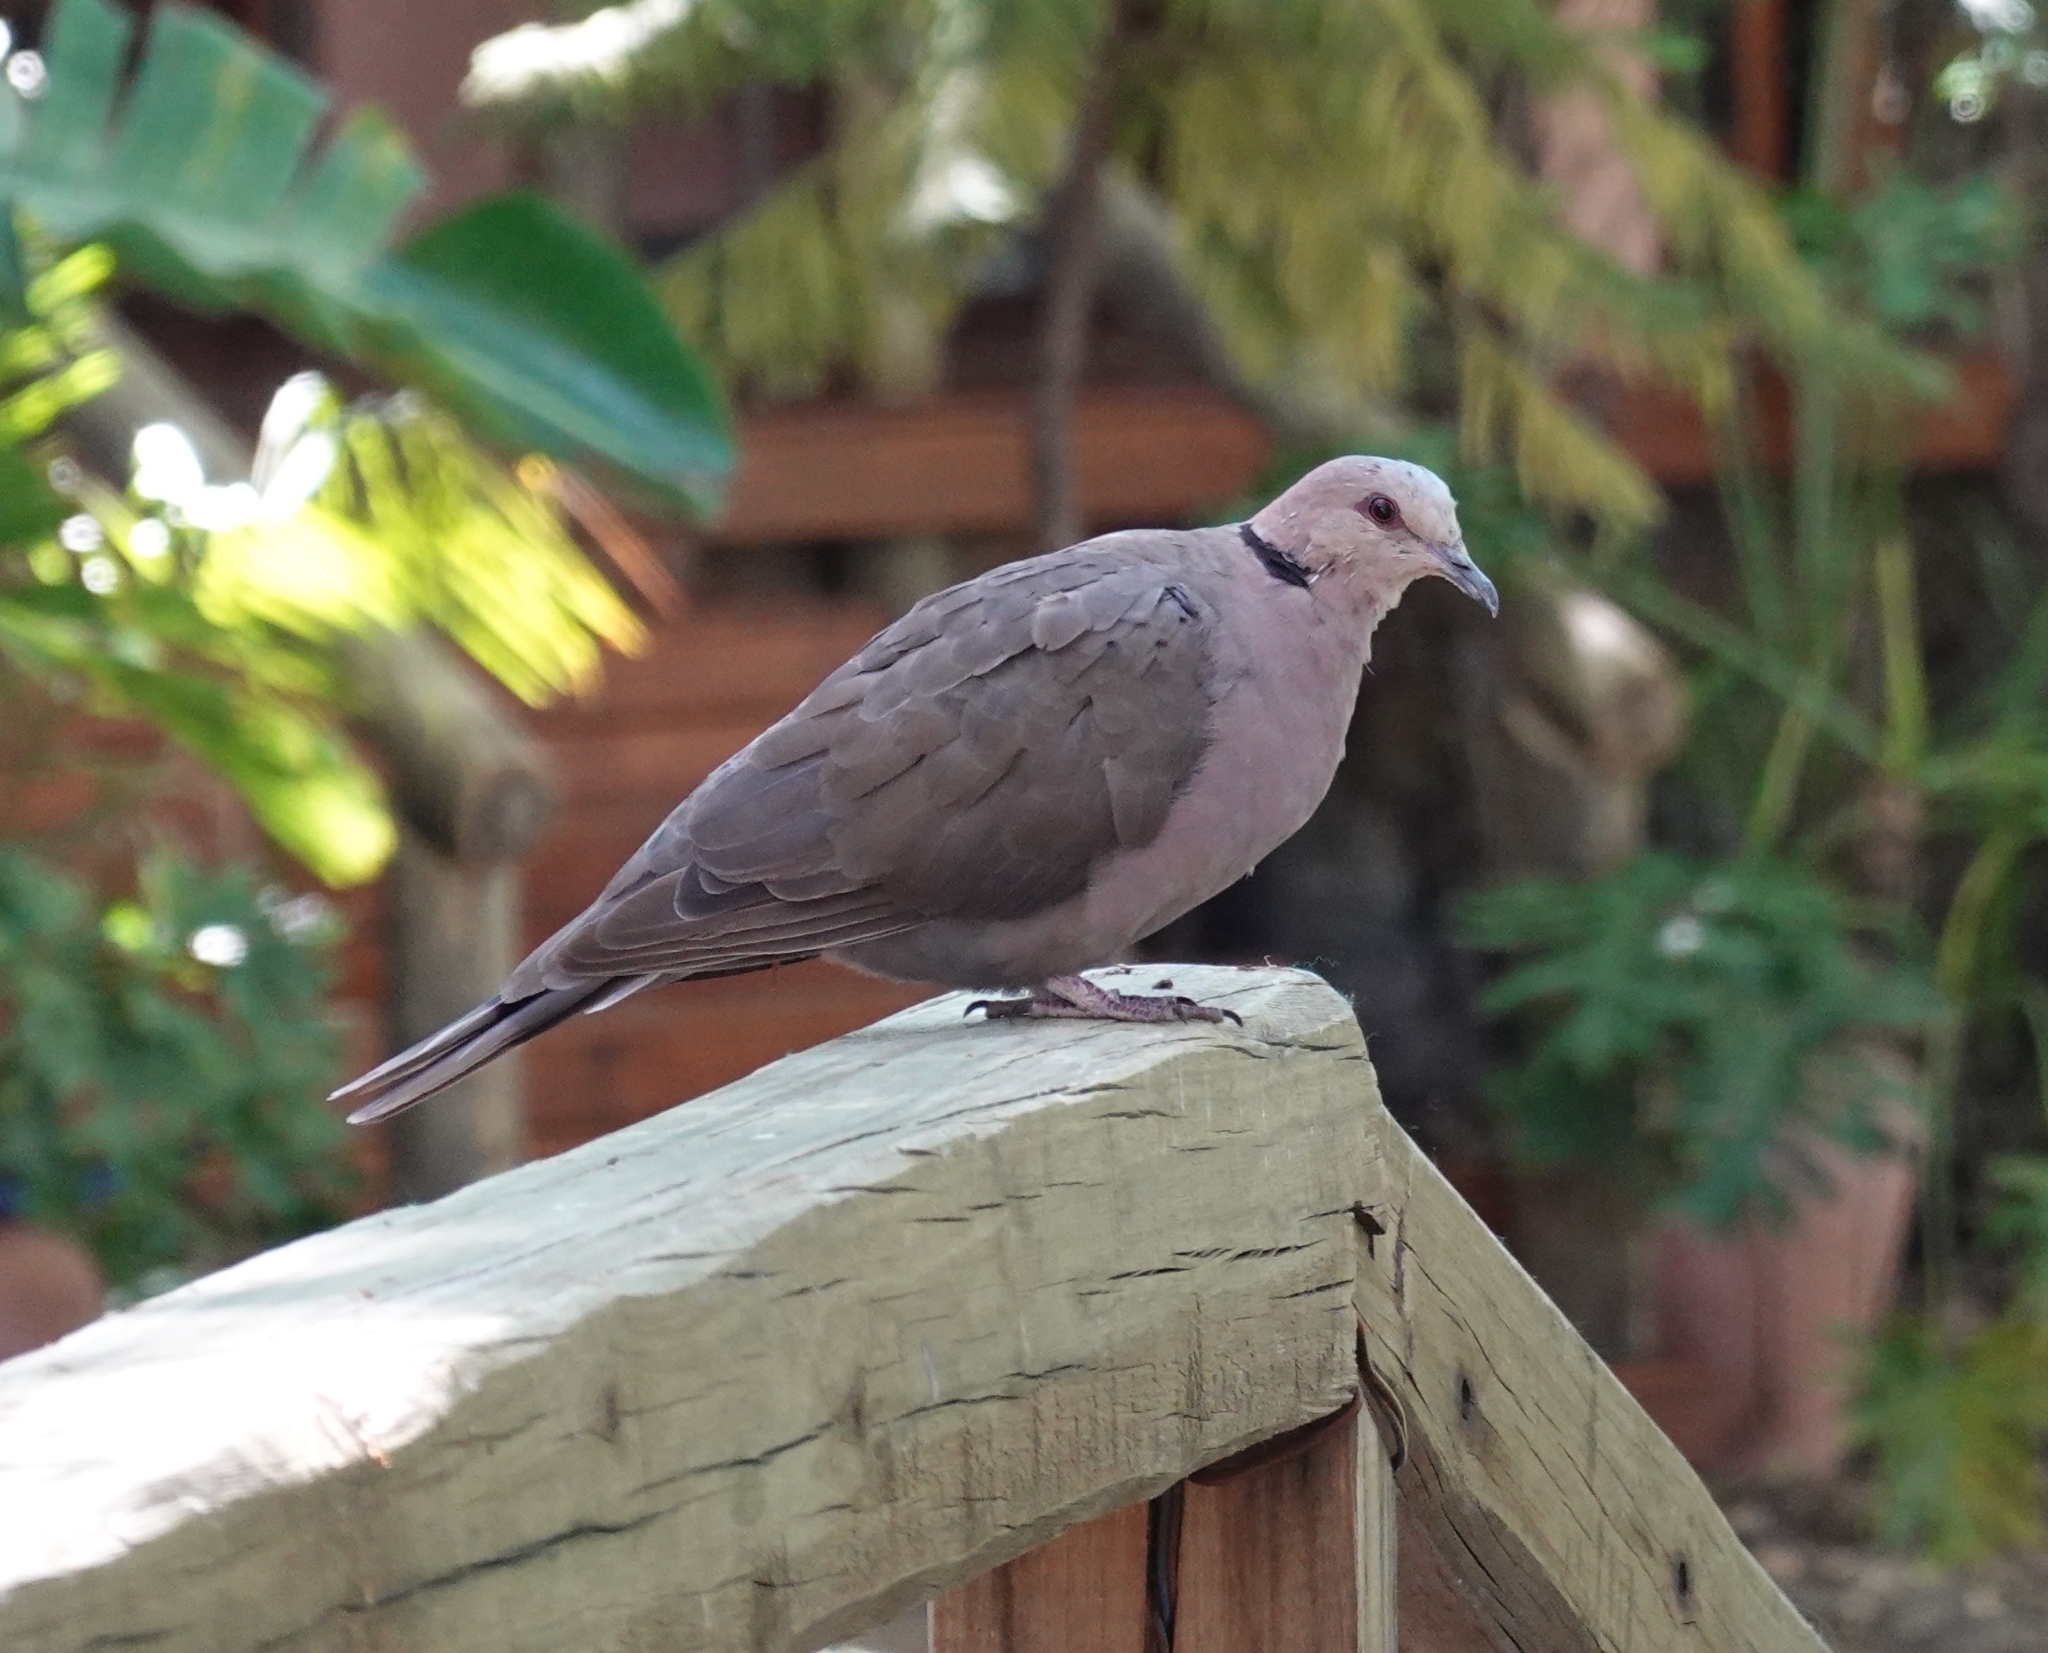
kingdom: Animalia
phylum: Chordata
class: Aves
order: Columbiformes
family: Columbidae
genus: Streptopelia
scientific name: Streptopelia semitorquata
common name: Red-eyed dove
